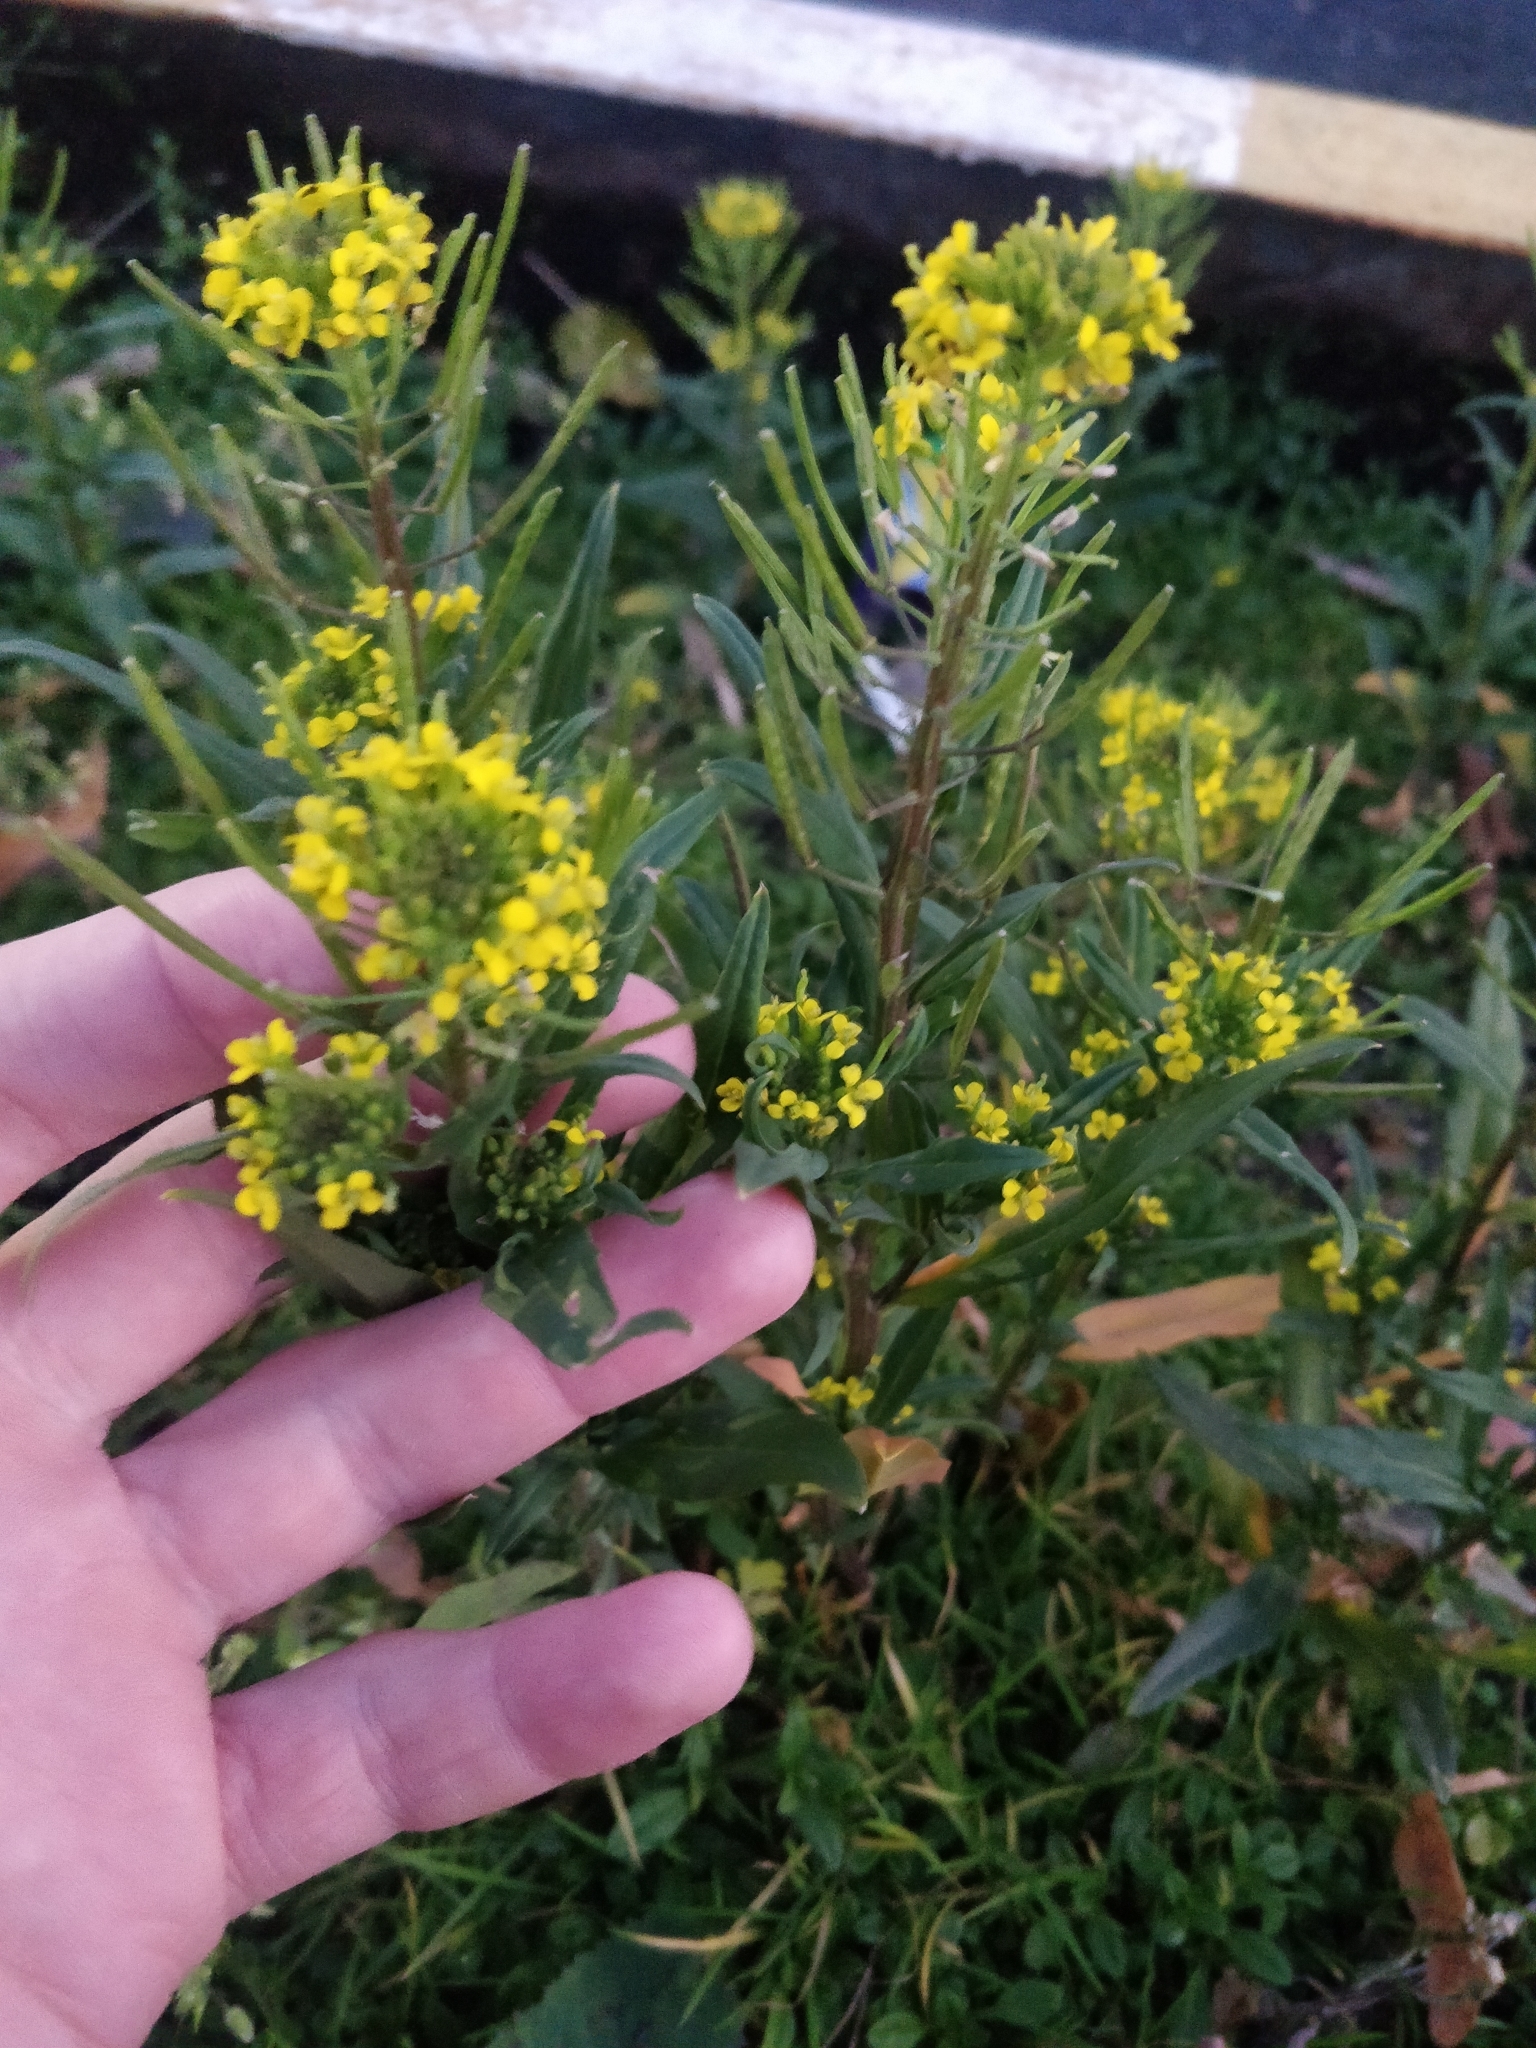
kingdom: Plantae
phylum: Tracheophyta
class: Magnoliopsida
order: Brassicales
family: Brassicaceae
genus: Erysimum
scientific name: Erysimum cheiranthoides
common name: Treacle mustard
